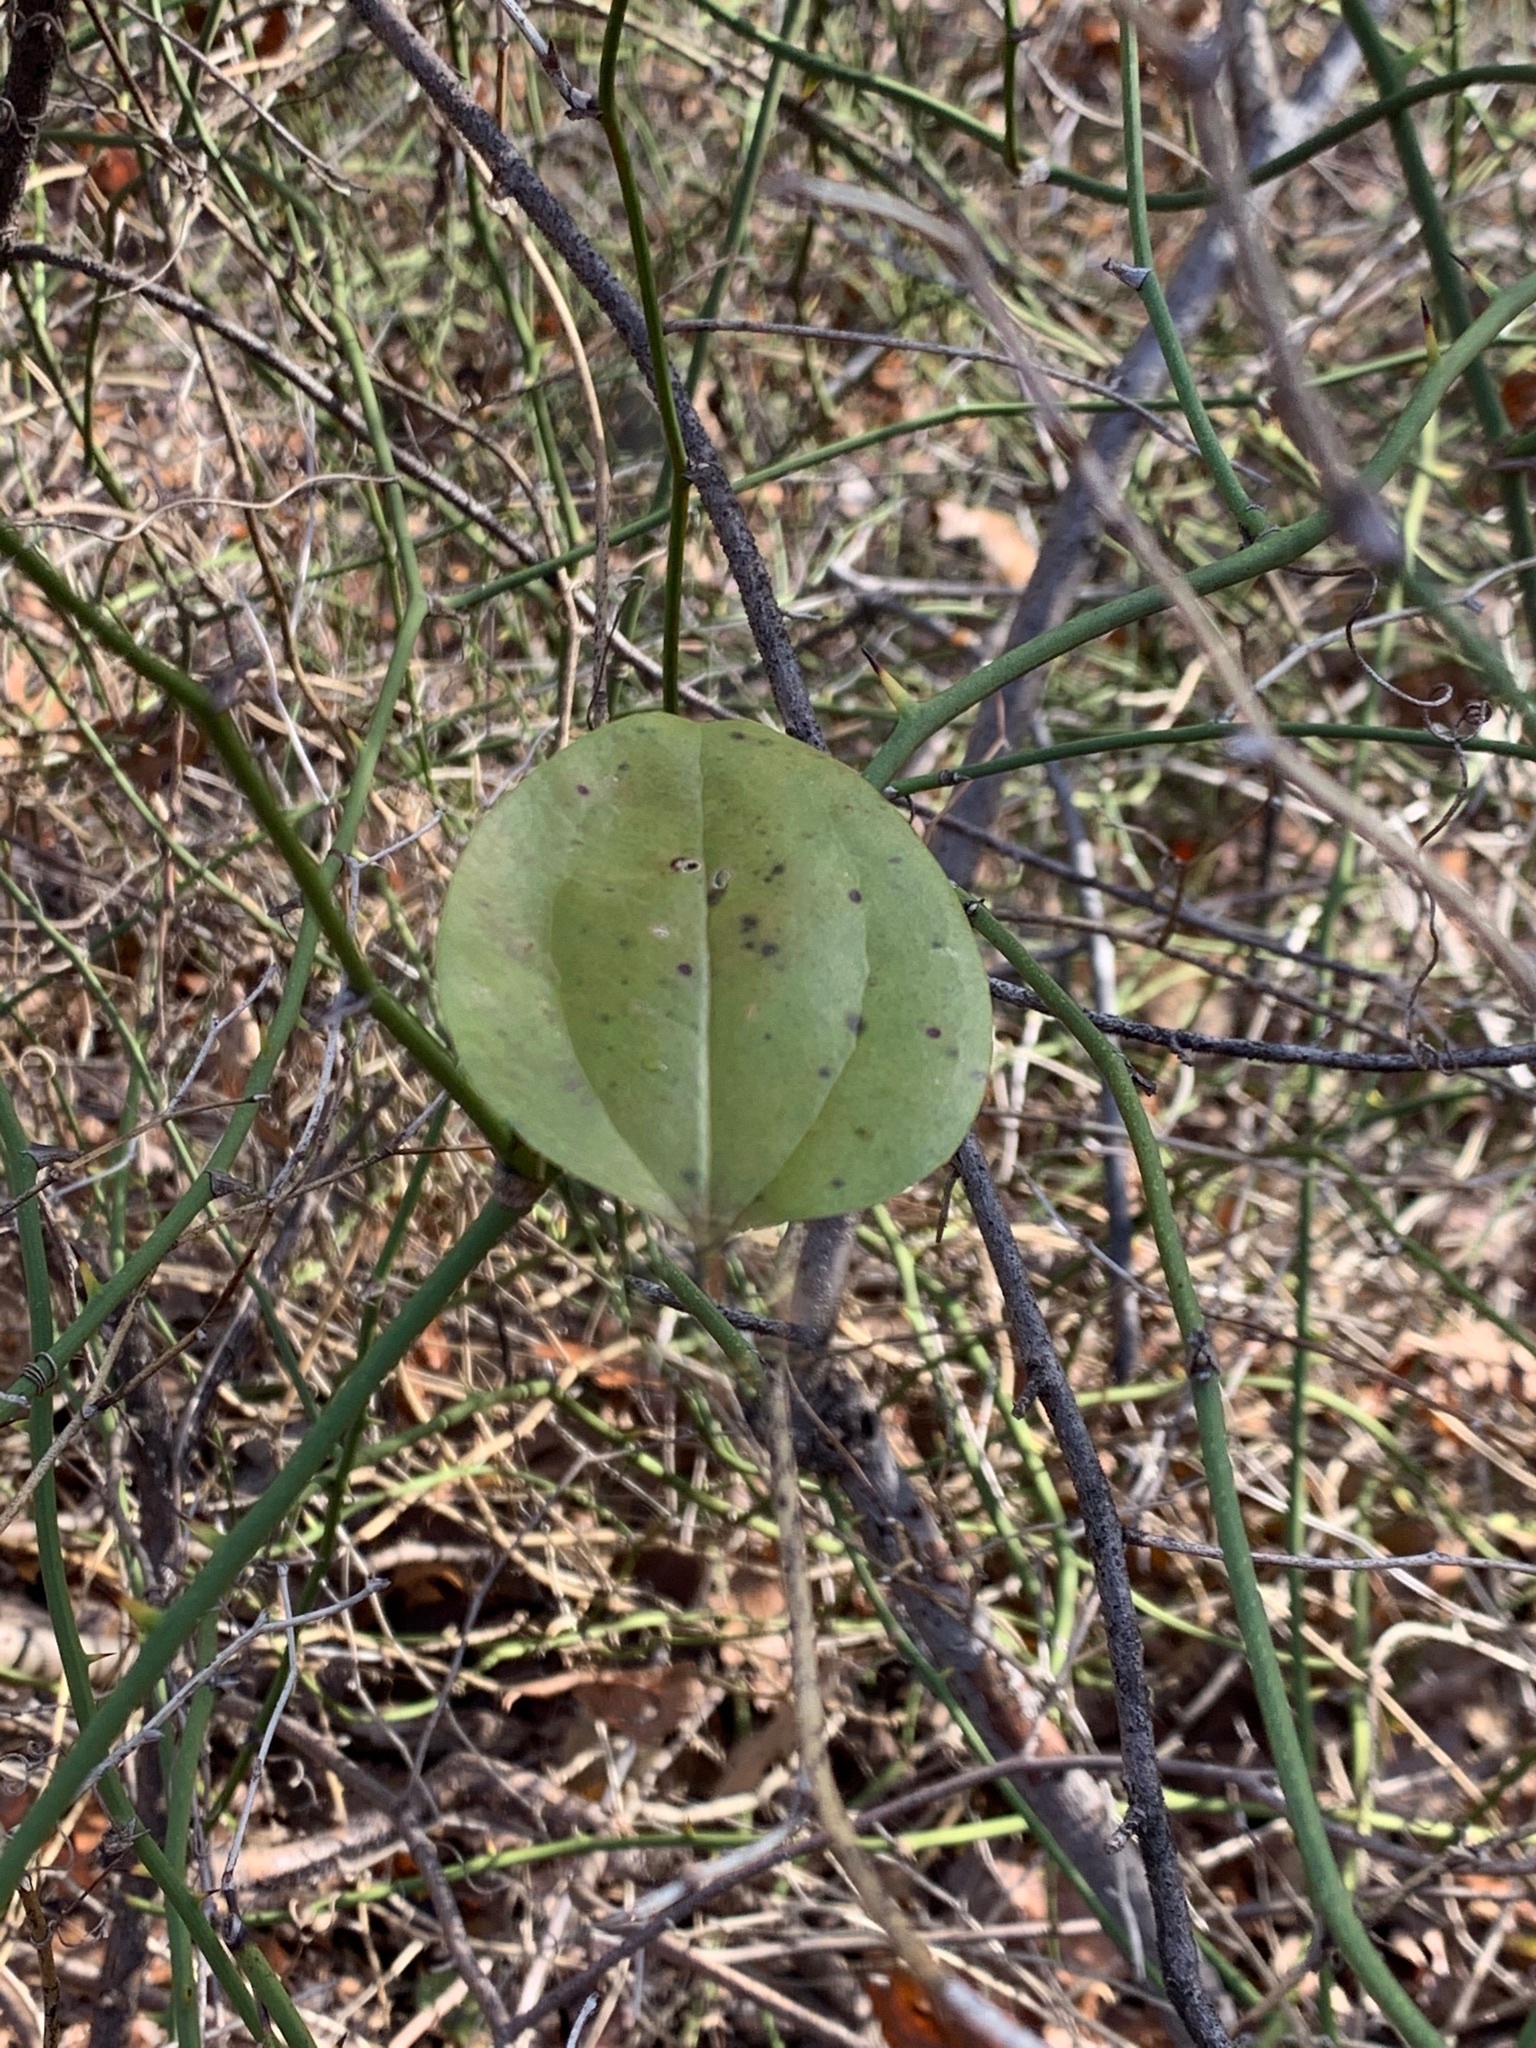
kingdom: Plantae
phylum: Tracheophyta
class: Liliopsida
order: Liliales
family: Smilacaceae
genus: Smilax
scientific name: Smilax rotundifolia
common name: Bullbriar
